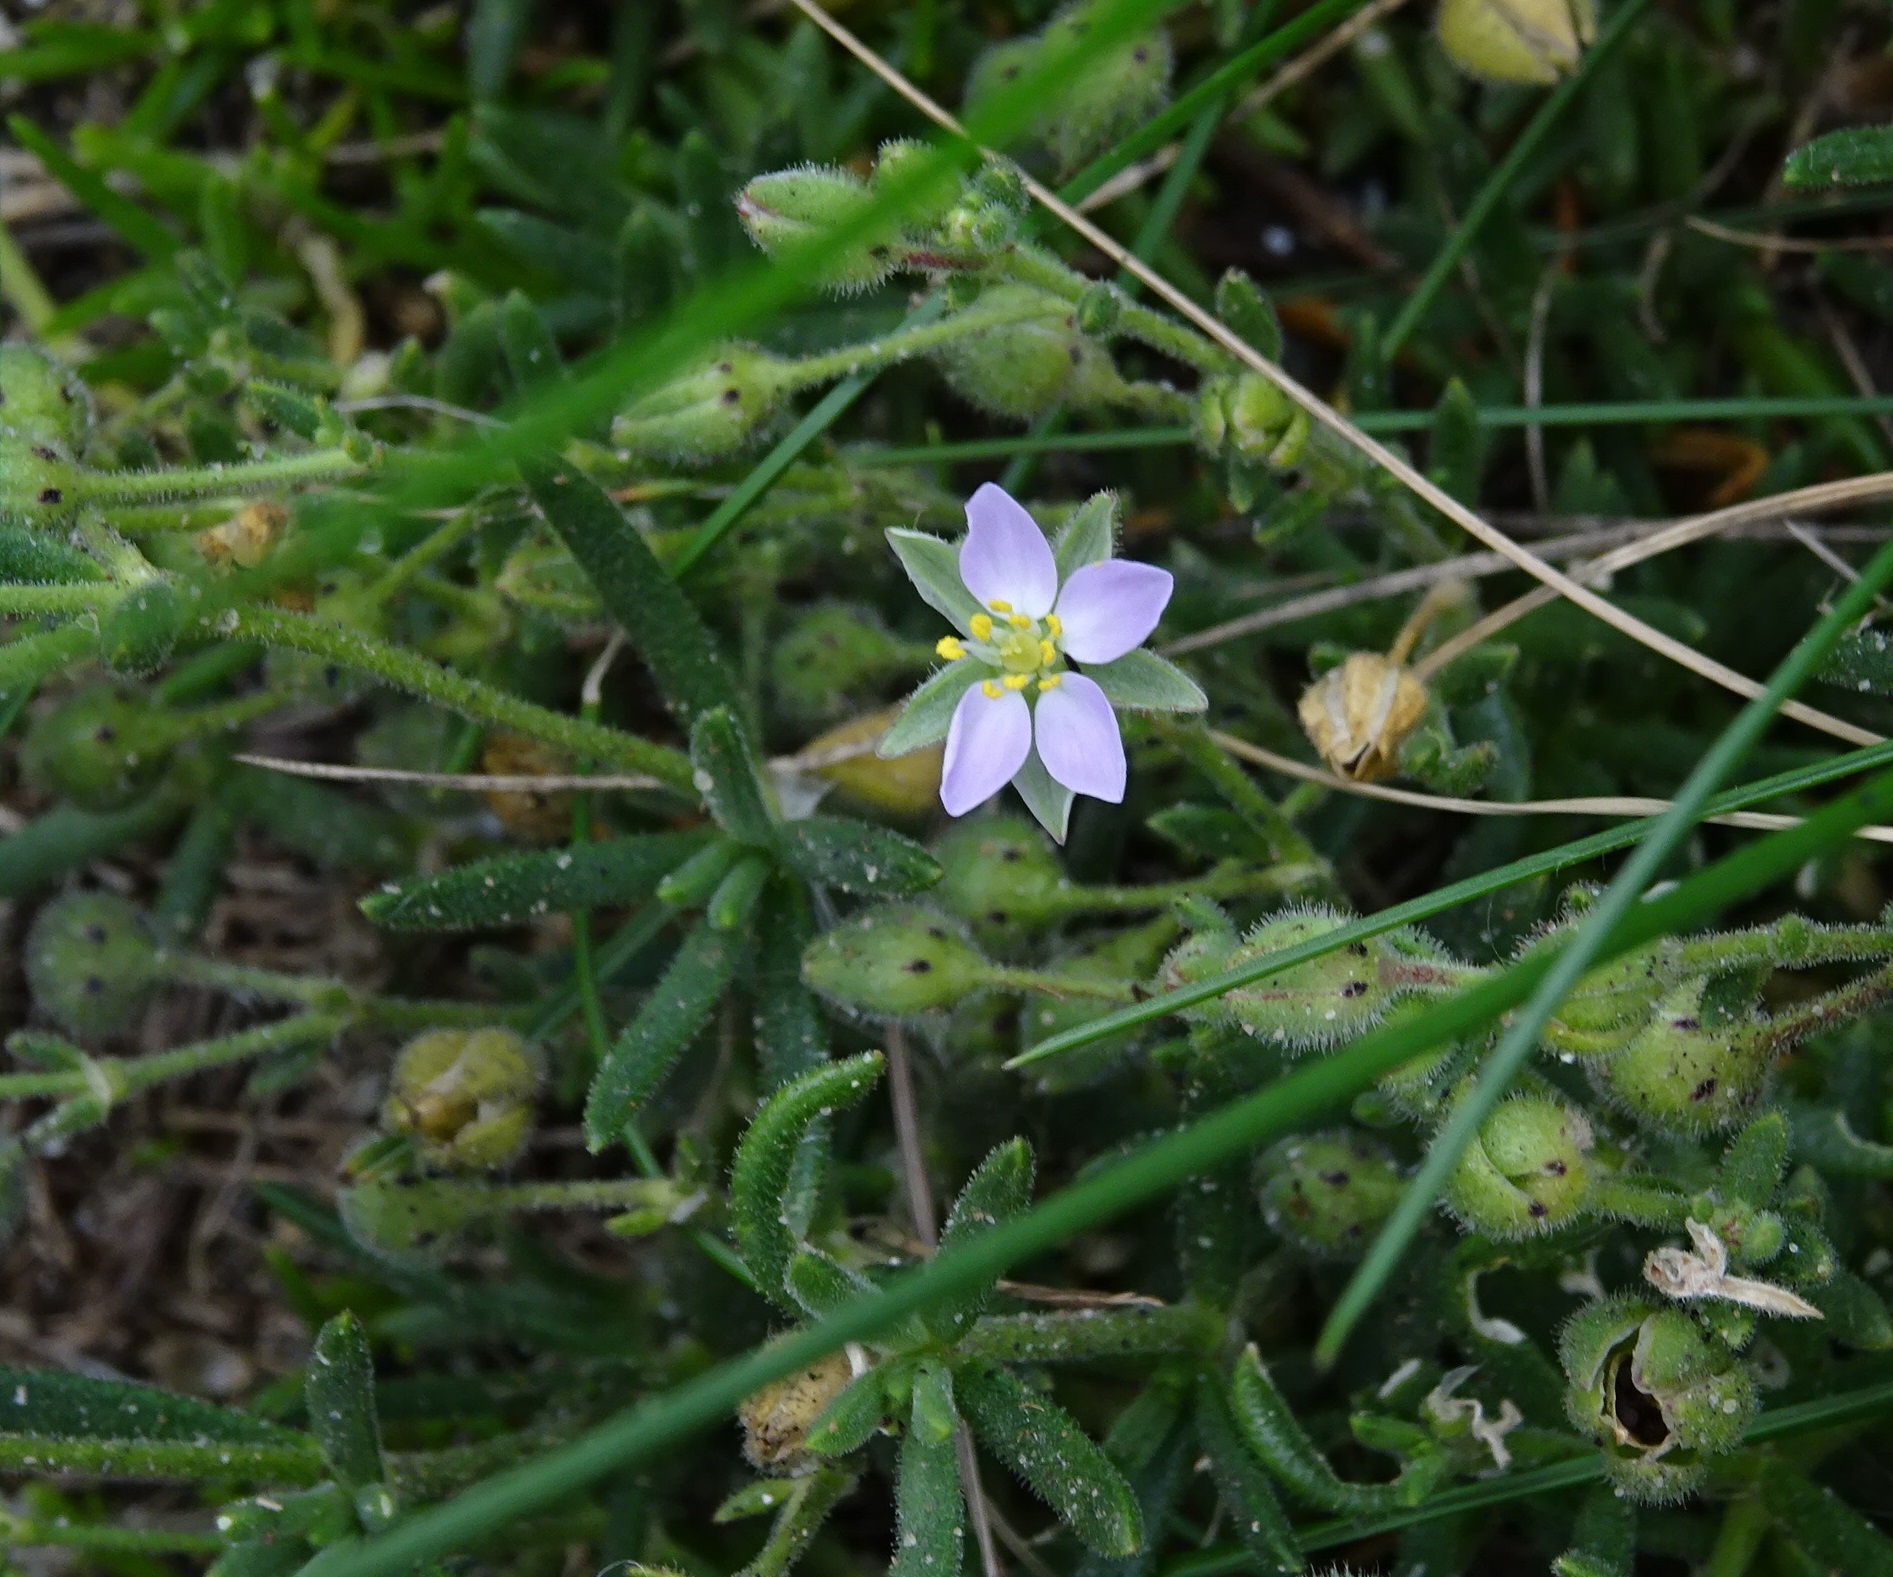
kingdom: Plantae
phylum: Tracheophyta
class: Magnoliopsida
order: Caryophyllales
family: Caryophyllaceae
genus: Spergularia
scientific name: Spergularia rupicola
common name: Cliff sand-spurrey
